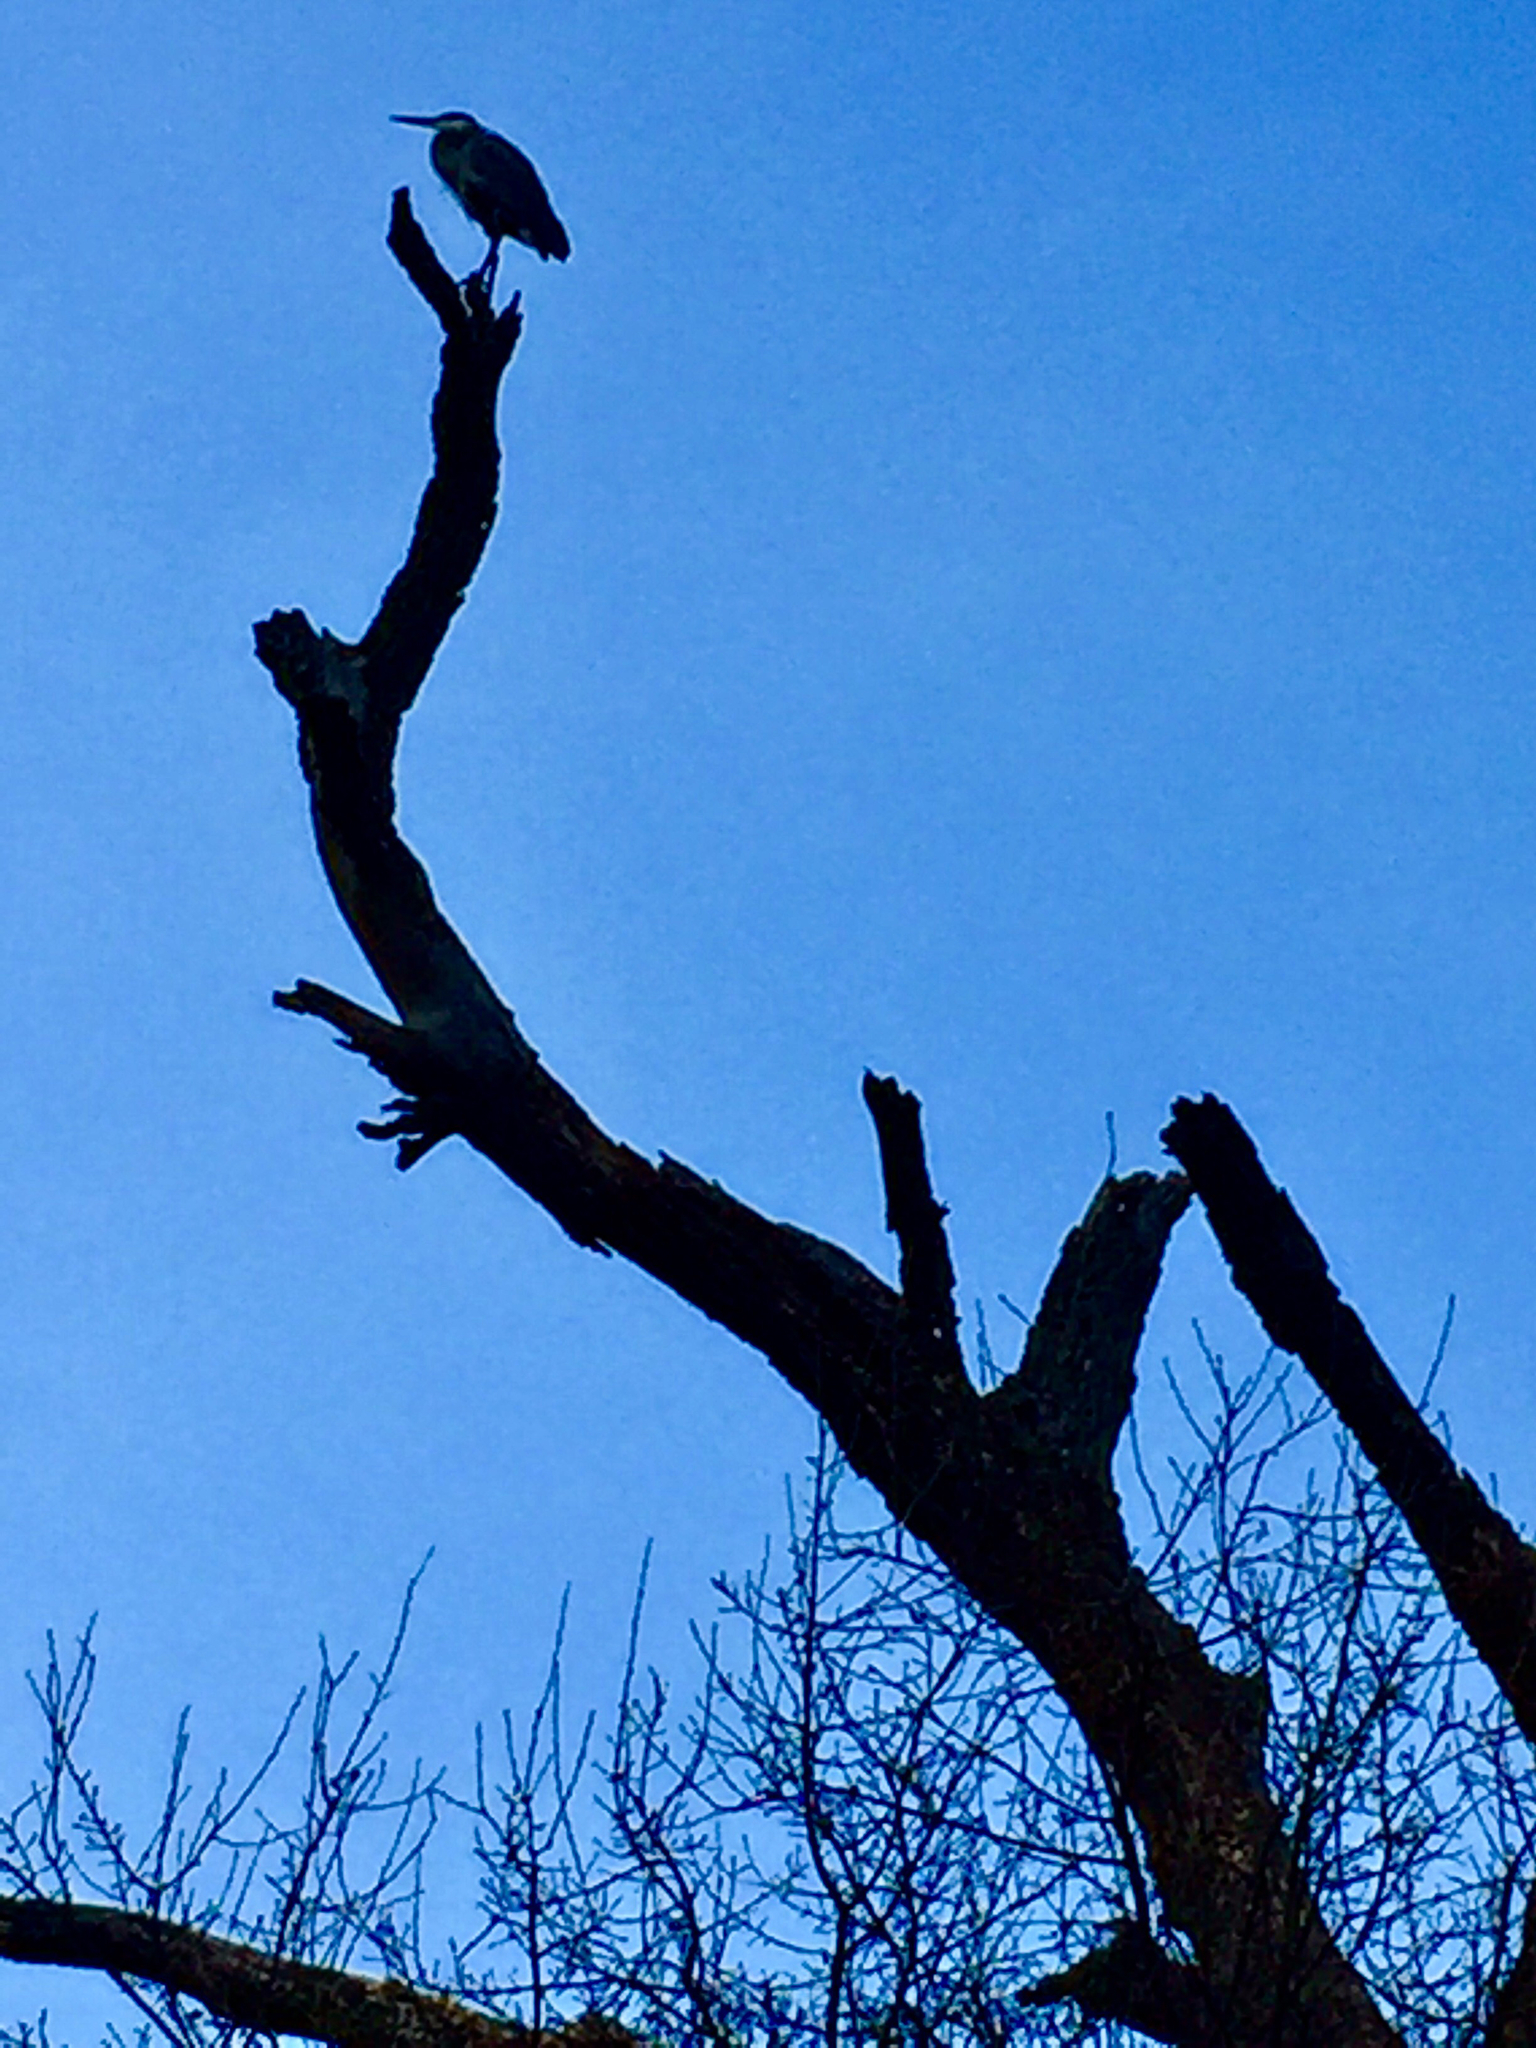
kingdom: Animalia
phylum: Chordata
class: Aves
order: Pelecaniformes
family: Ardeidae
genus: Ardea
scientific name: Ardea herodias
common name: Great blue heron
